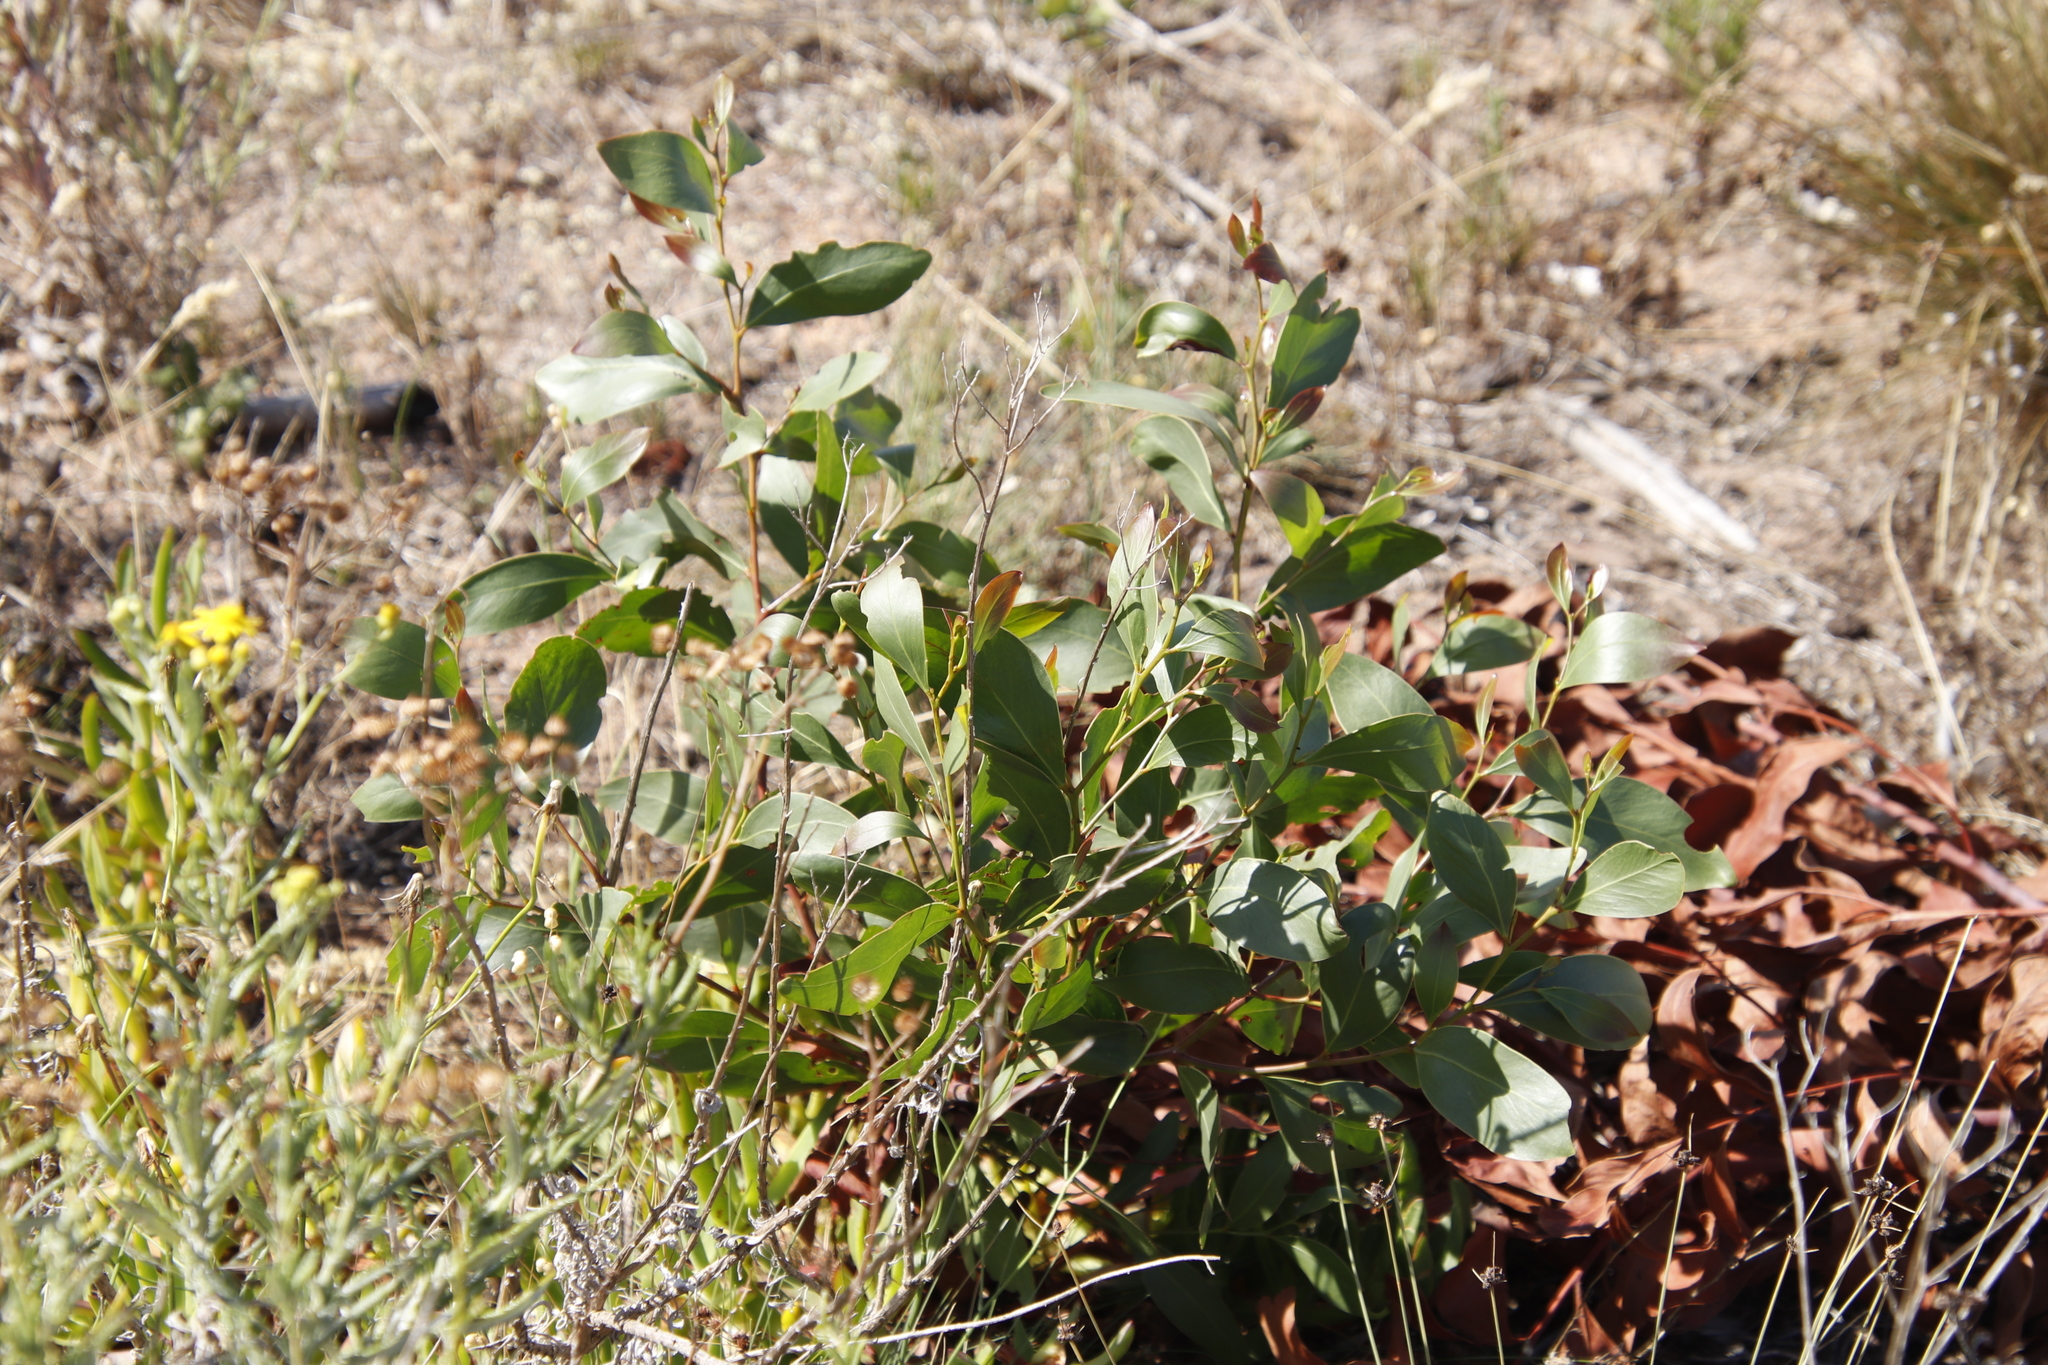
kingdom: Plantae
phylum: Tracheophyta
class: Magnoliopsida
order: Fabales
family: Fabaceae
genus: Acacia
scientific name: Acacia pycnantha
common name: Golden wattle
